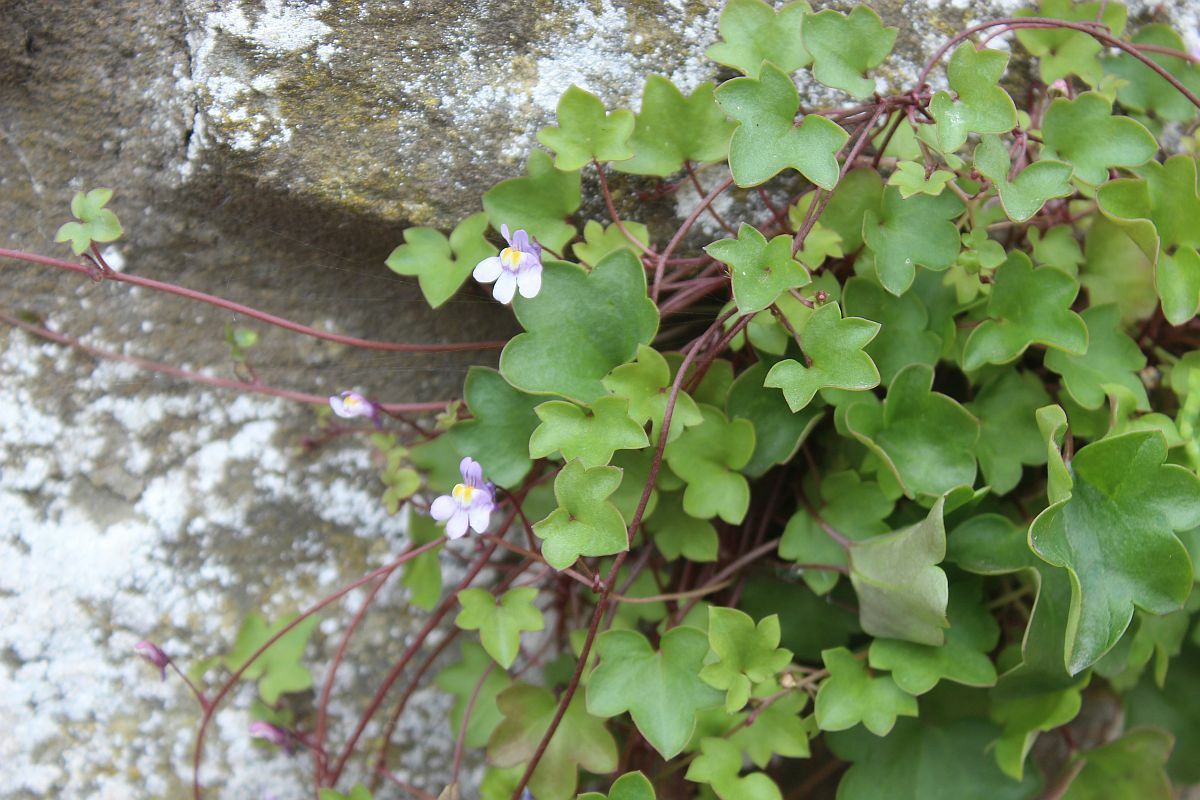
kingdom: Plantae
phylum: Tracheophyta
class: Magnoliopsida
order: Lamiales
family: Plantaginaceae
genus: Cymbalaria
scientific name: Cymbalaria muralis
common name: Ivy-leaved toadflax
